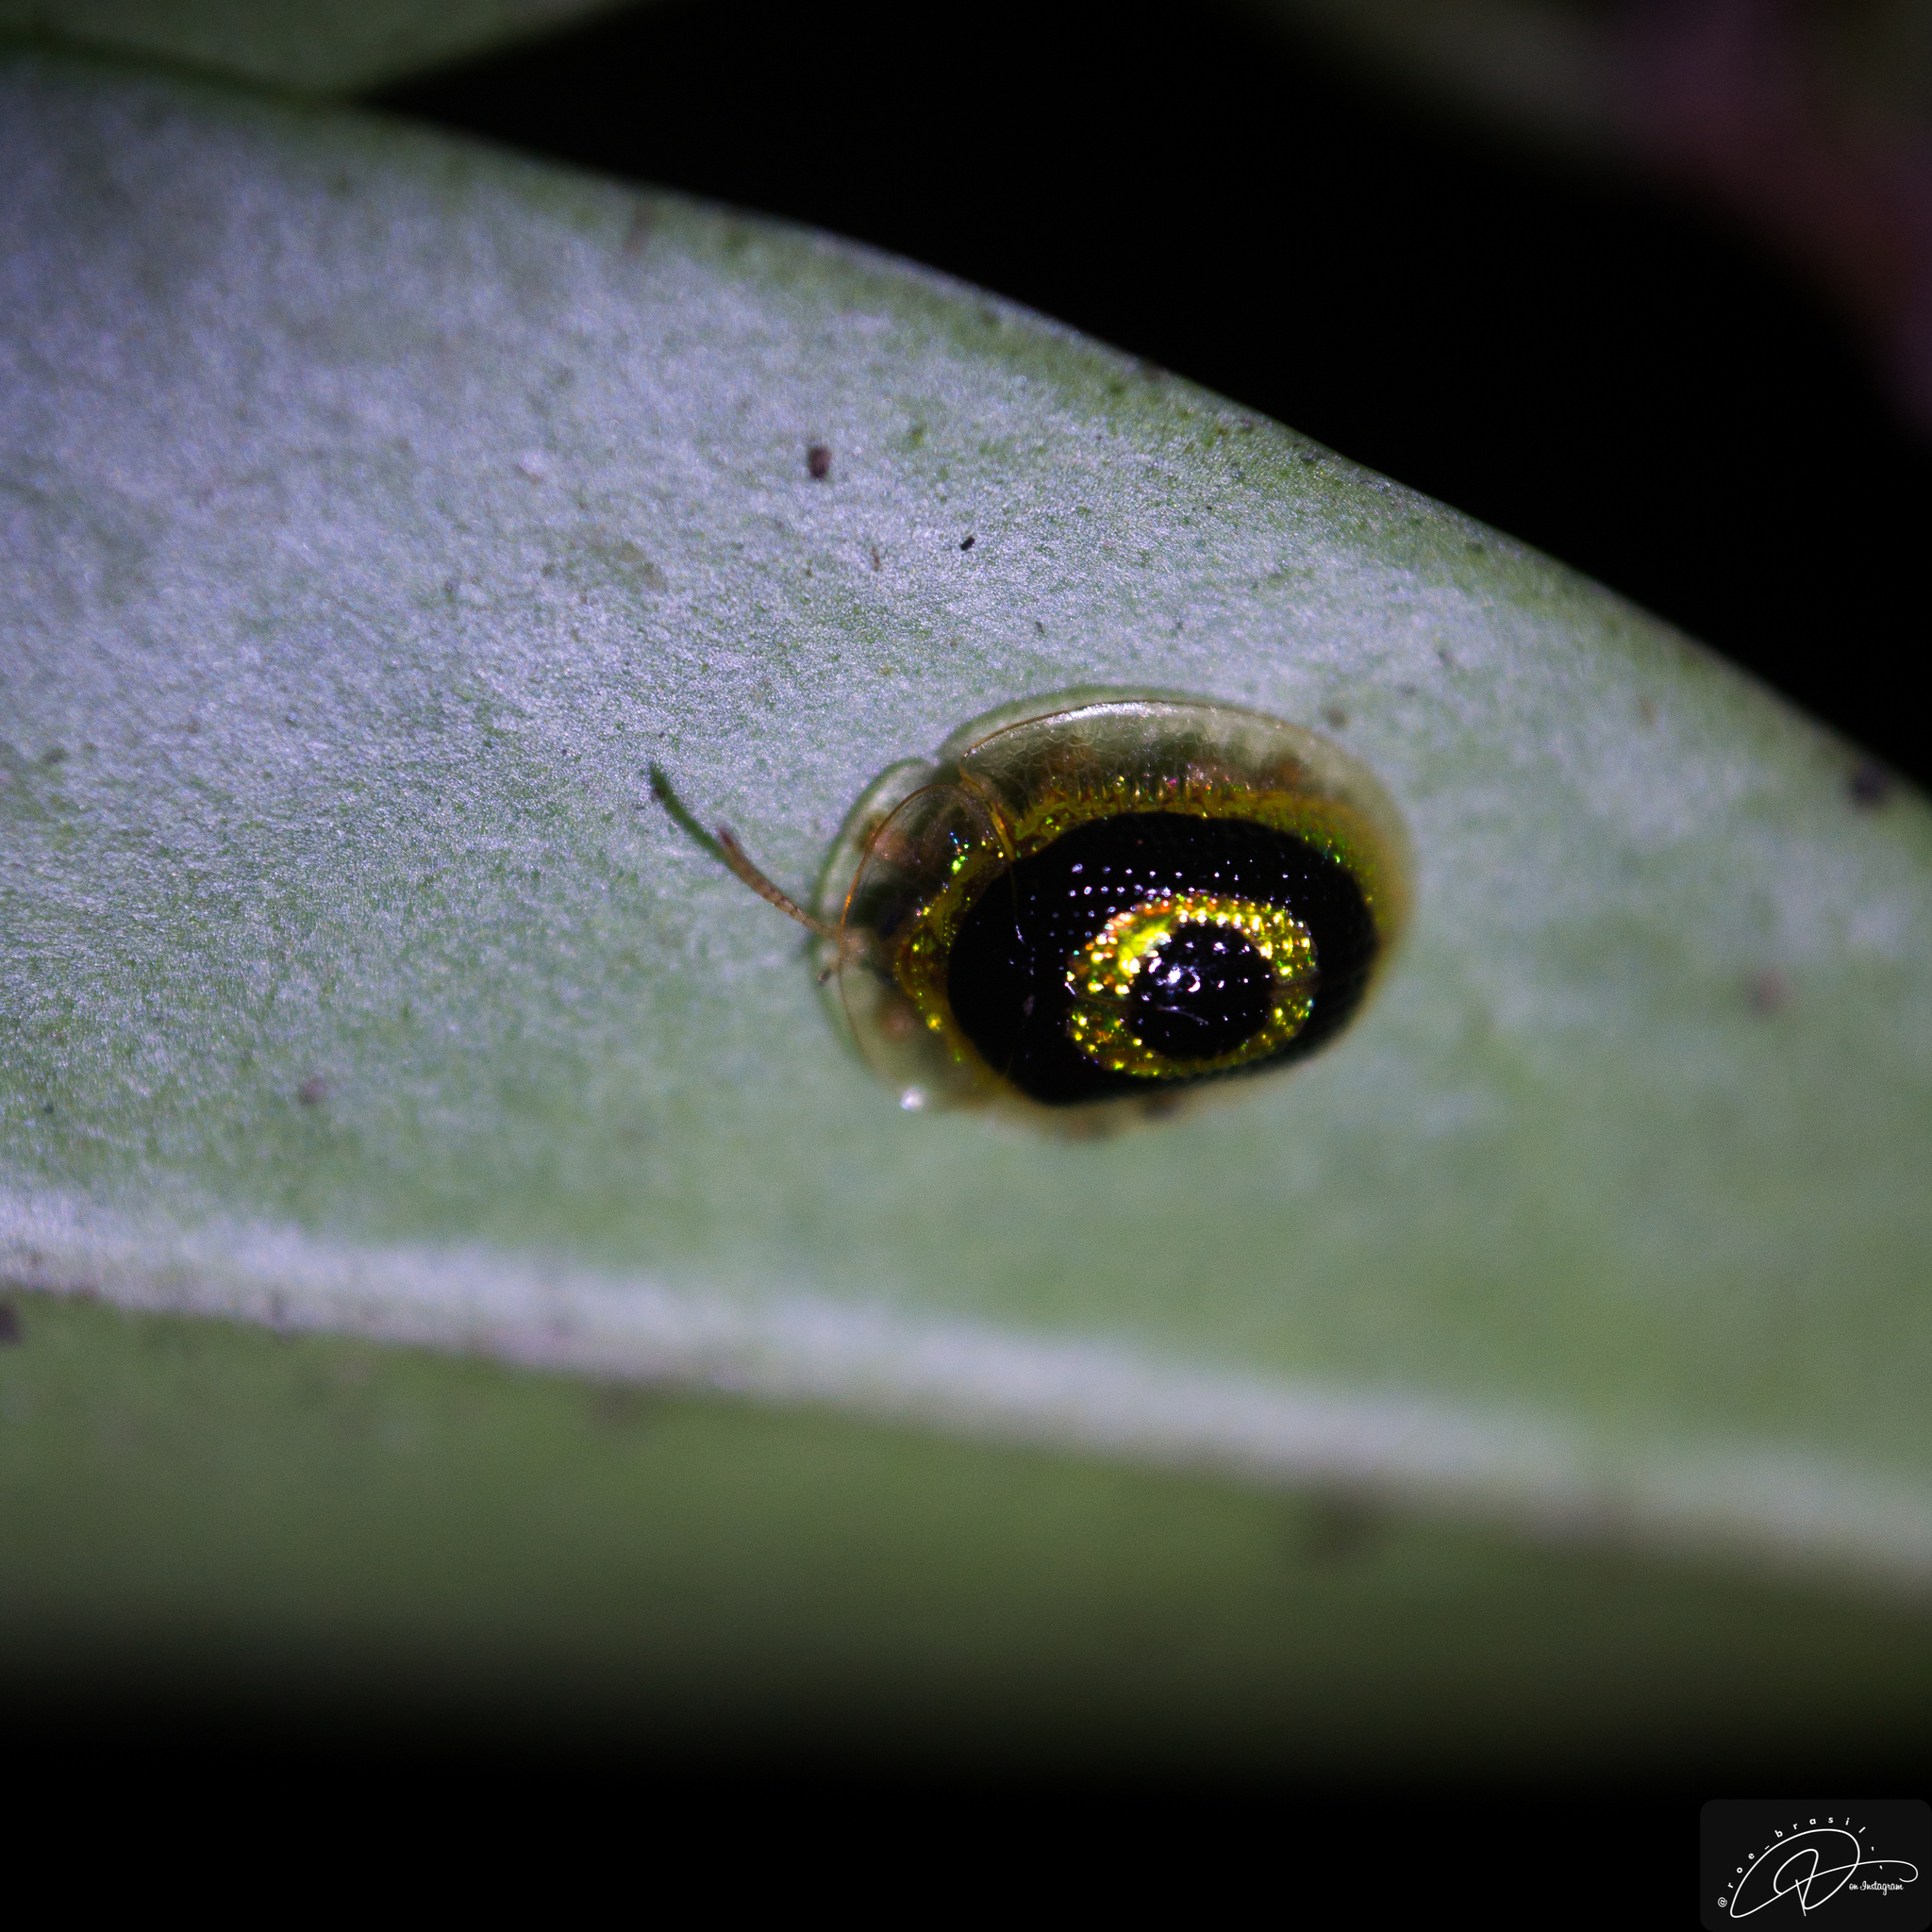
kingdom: Animalia
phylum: Arthropoda
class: Insecta
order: Coleoptera
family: Chrysomelidae
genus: Charidotis
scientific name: Charidotis pupillata
